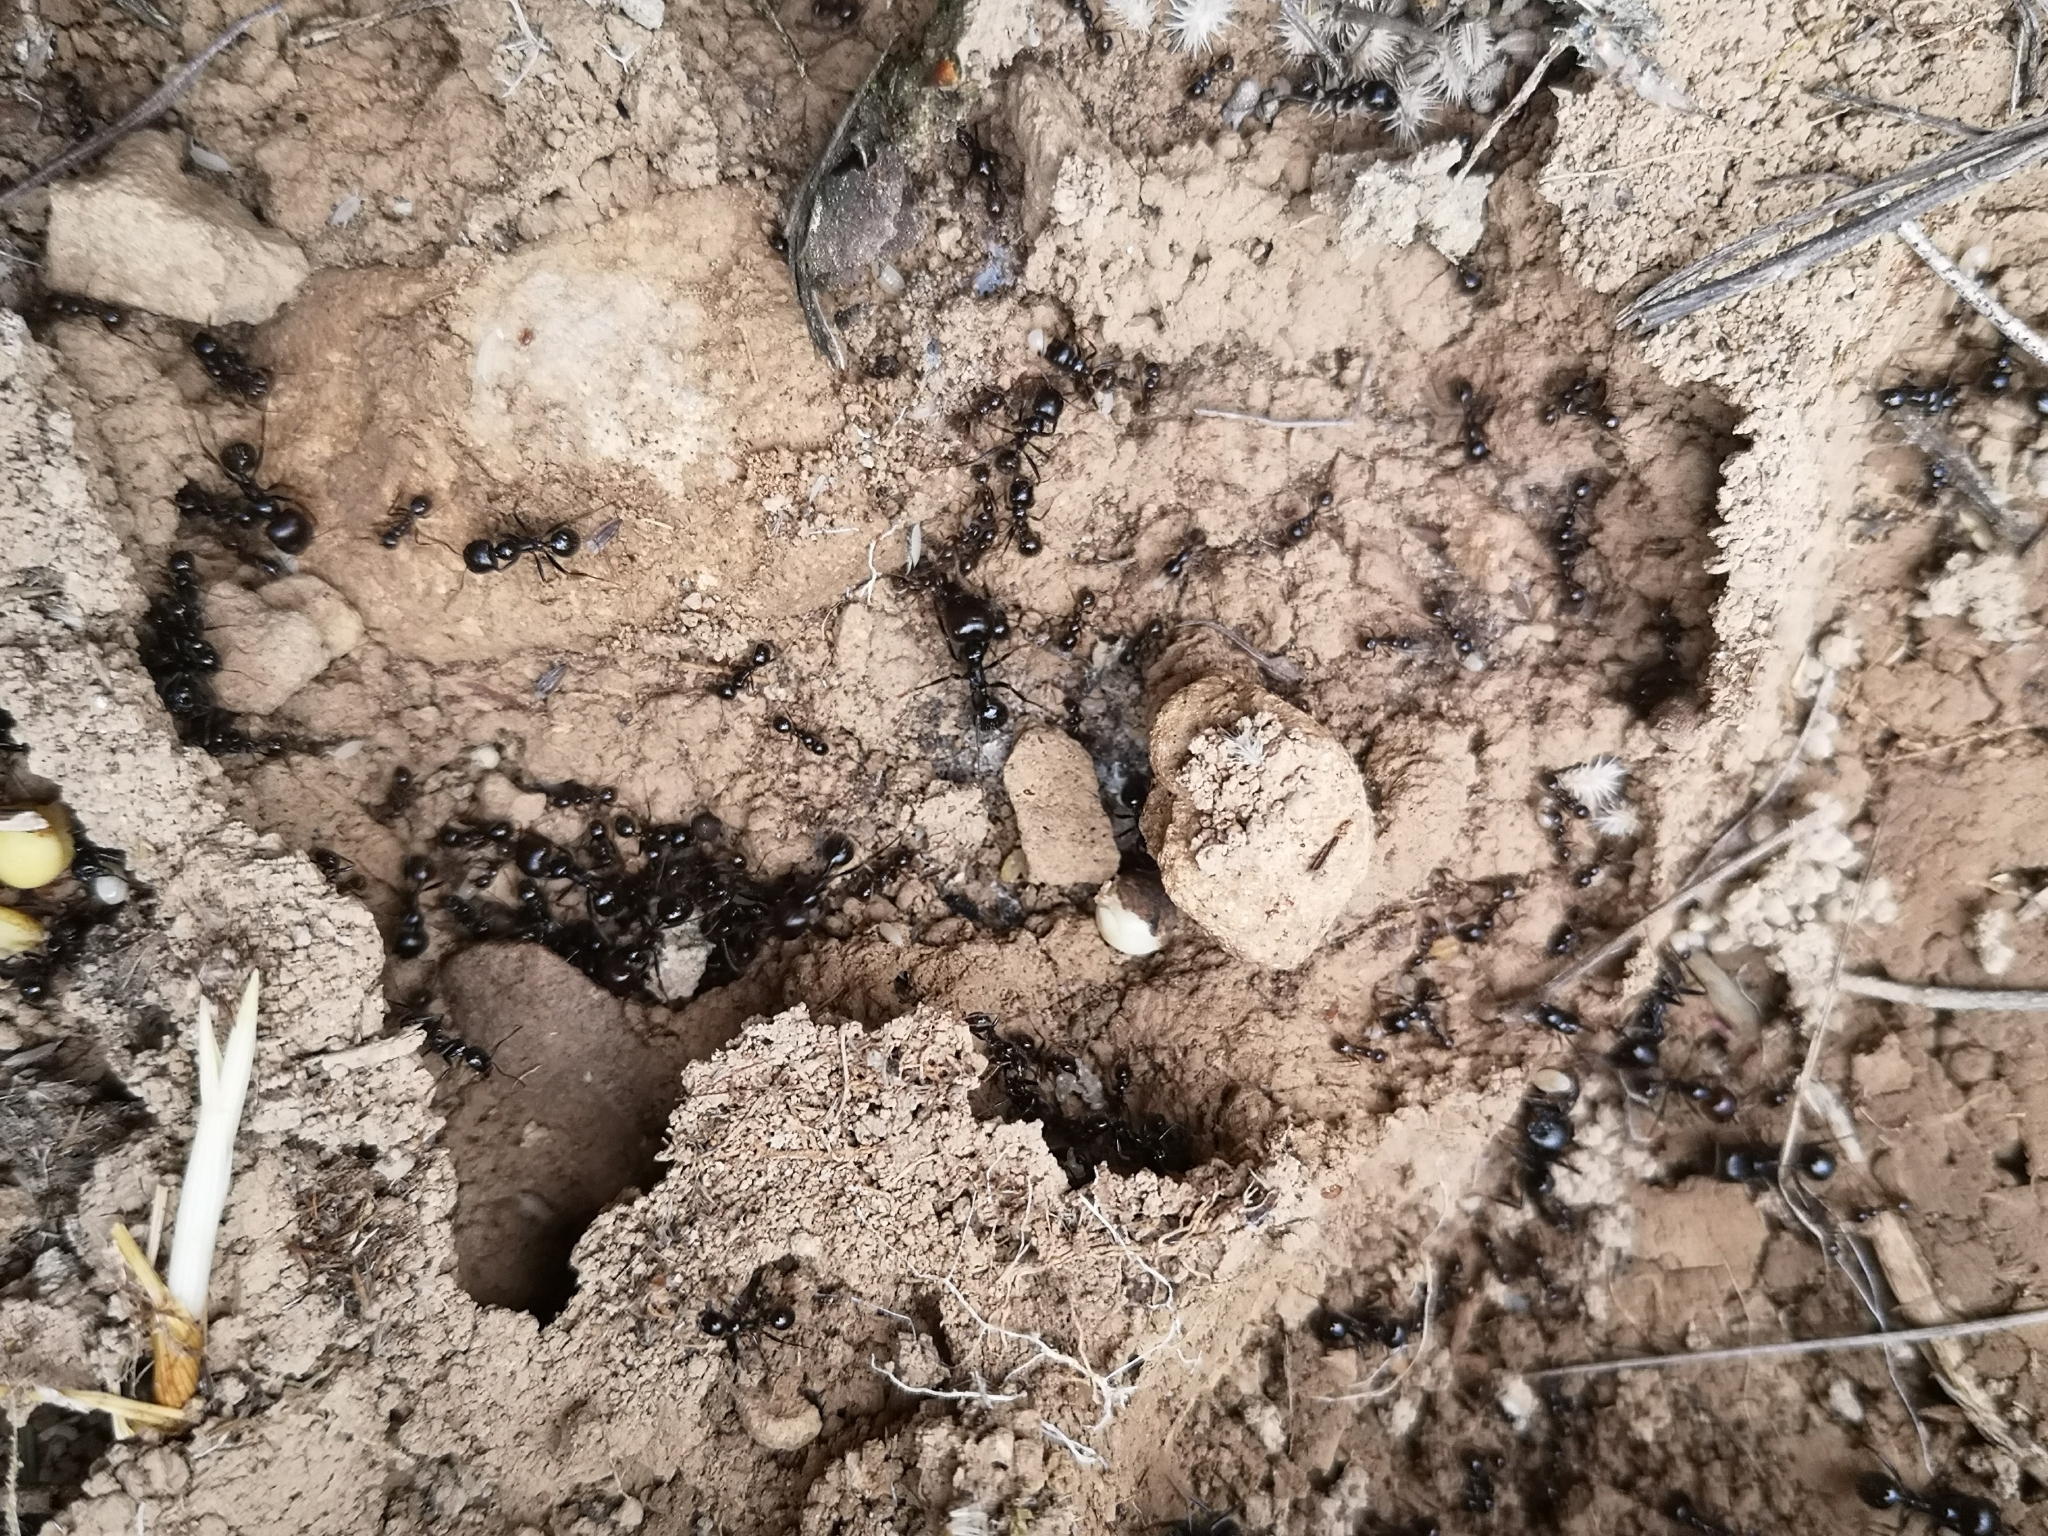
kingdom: Animalia
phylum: Arthropoda
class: Insecta
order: Hymenoptera
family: Formicidae
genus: Messor
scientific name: Messor barbarus
